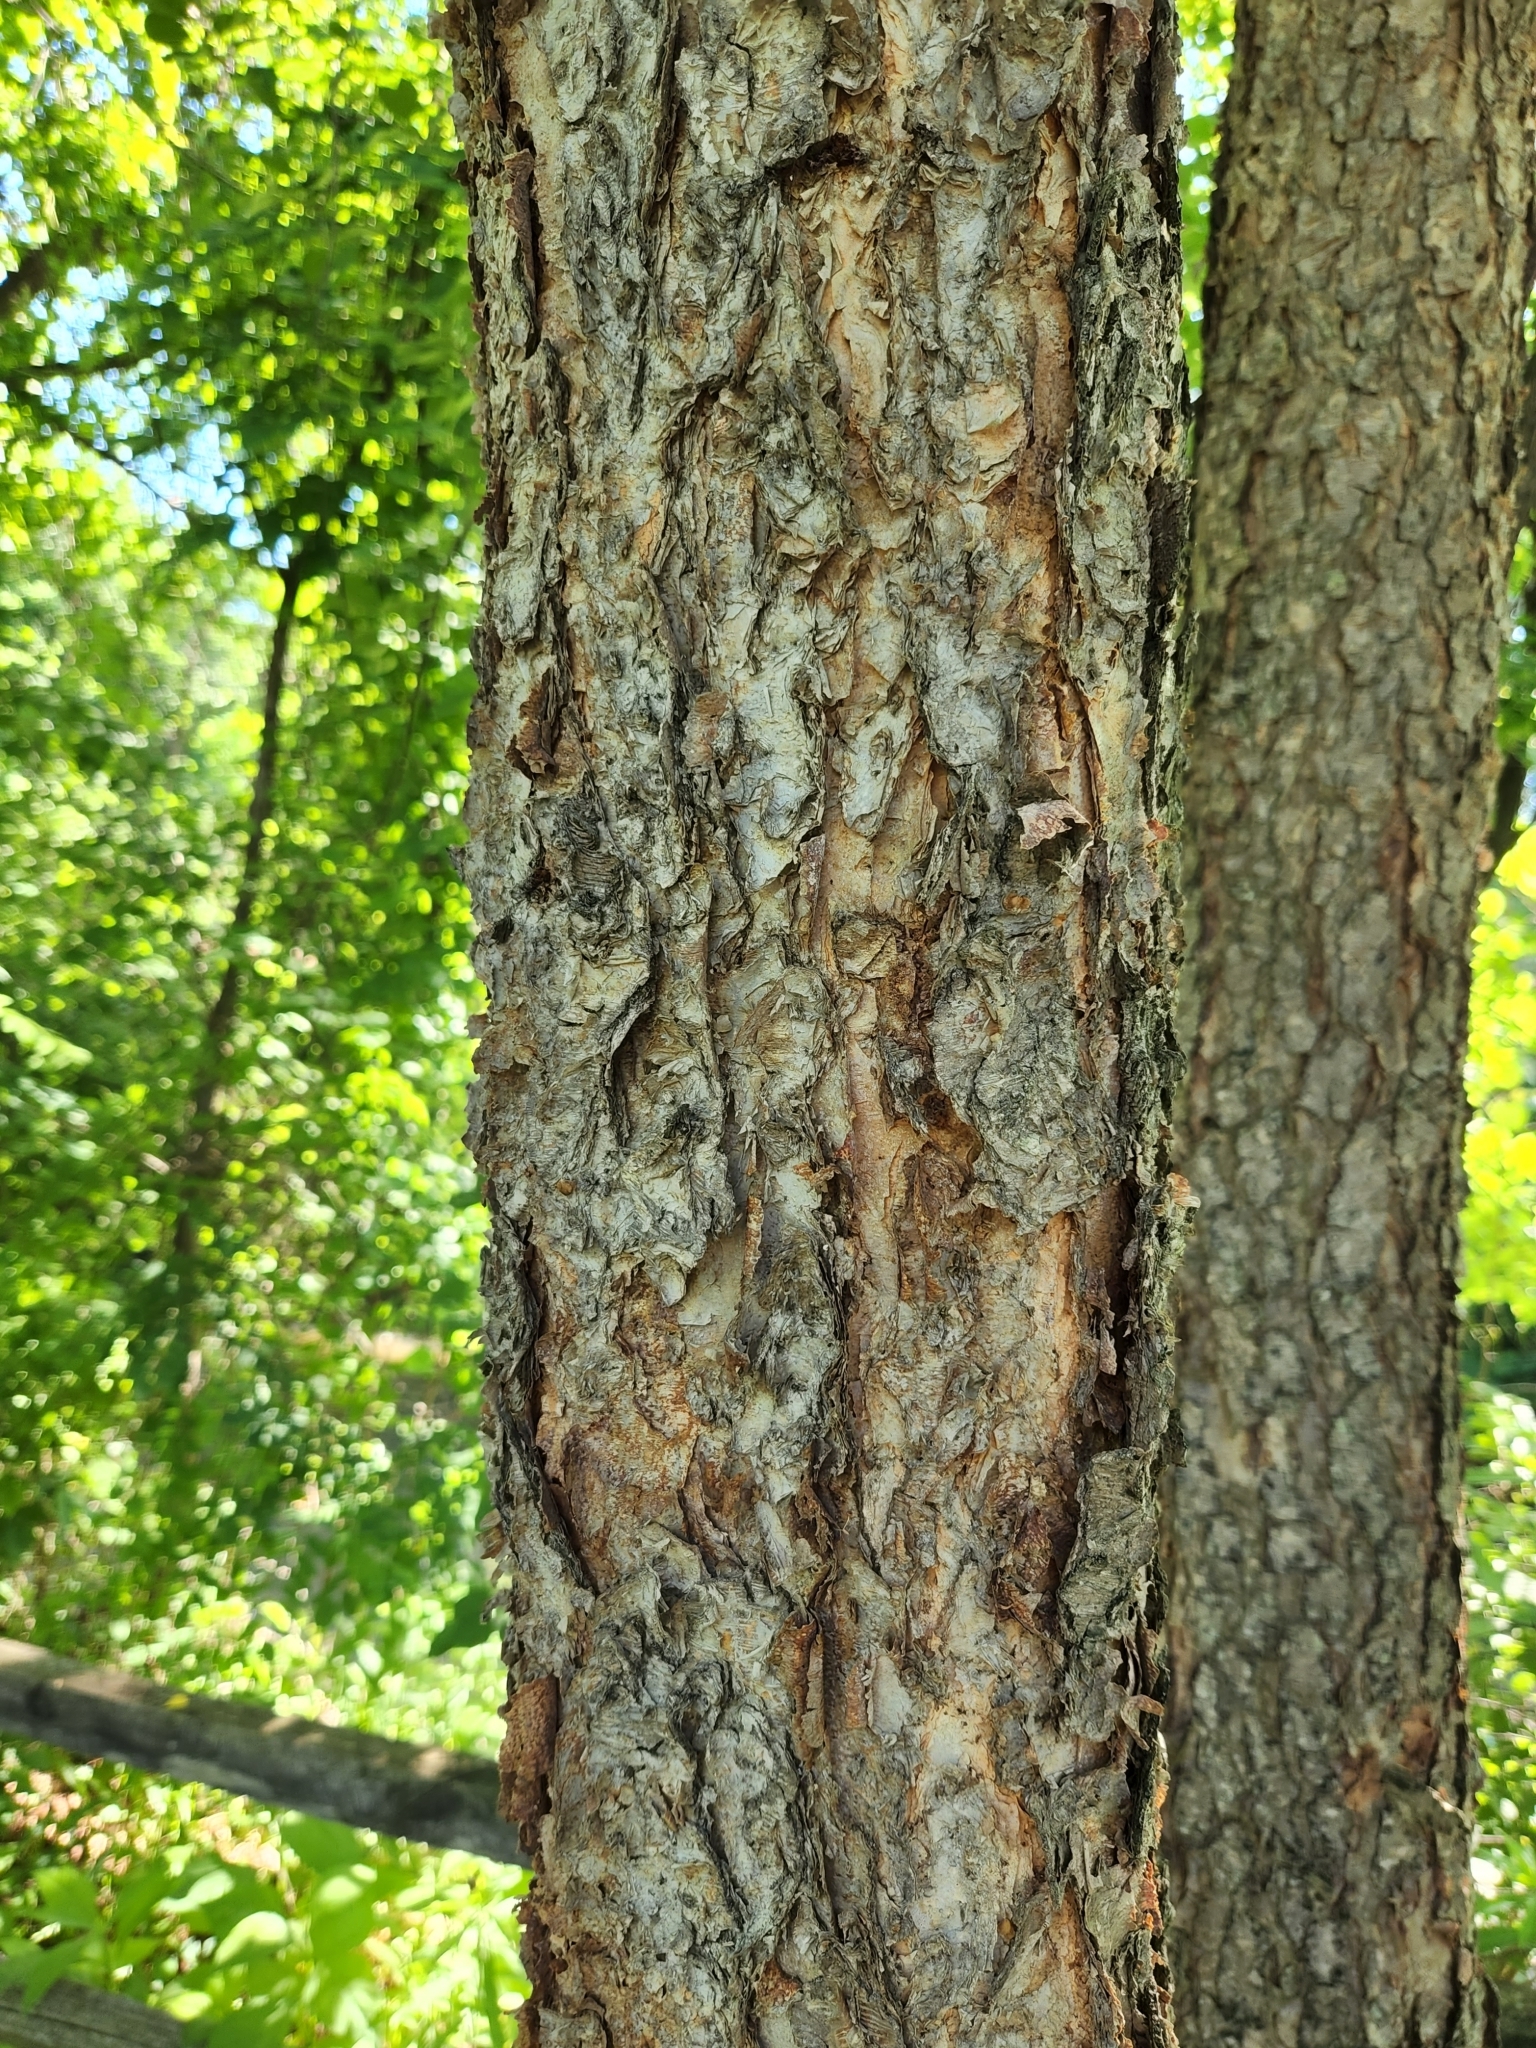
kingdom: Plantae
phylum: Tracheophyta
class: Magnoliopsida
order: Fagales
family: Betulaceae
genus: Betula
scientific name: Betula nigra
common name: Black birch
